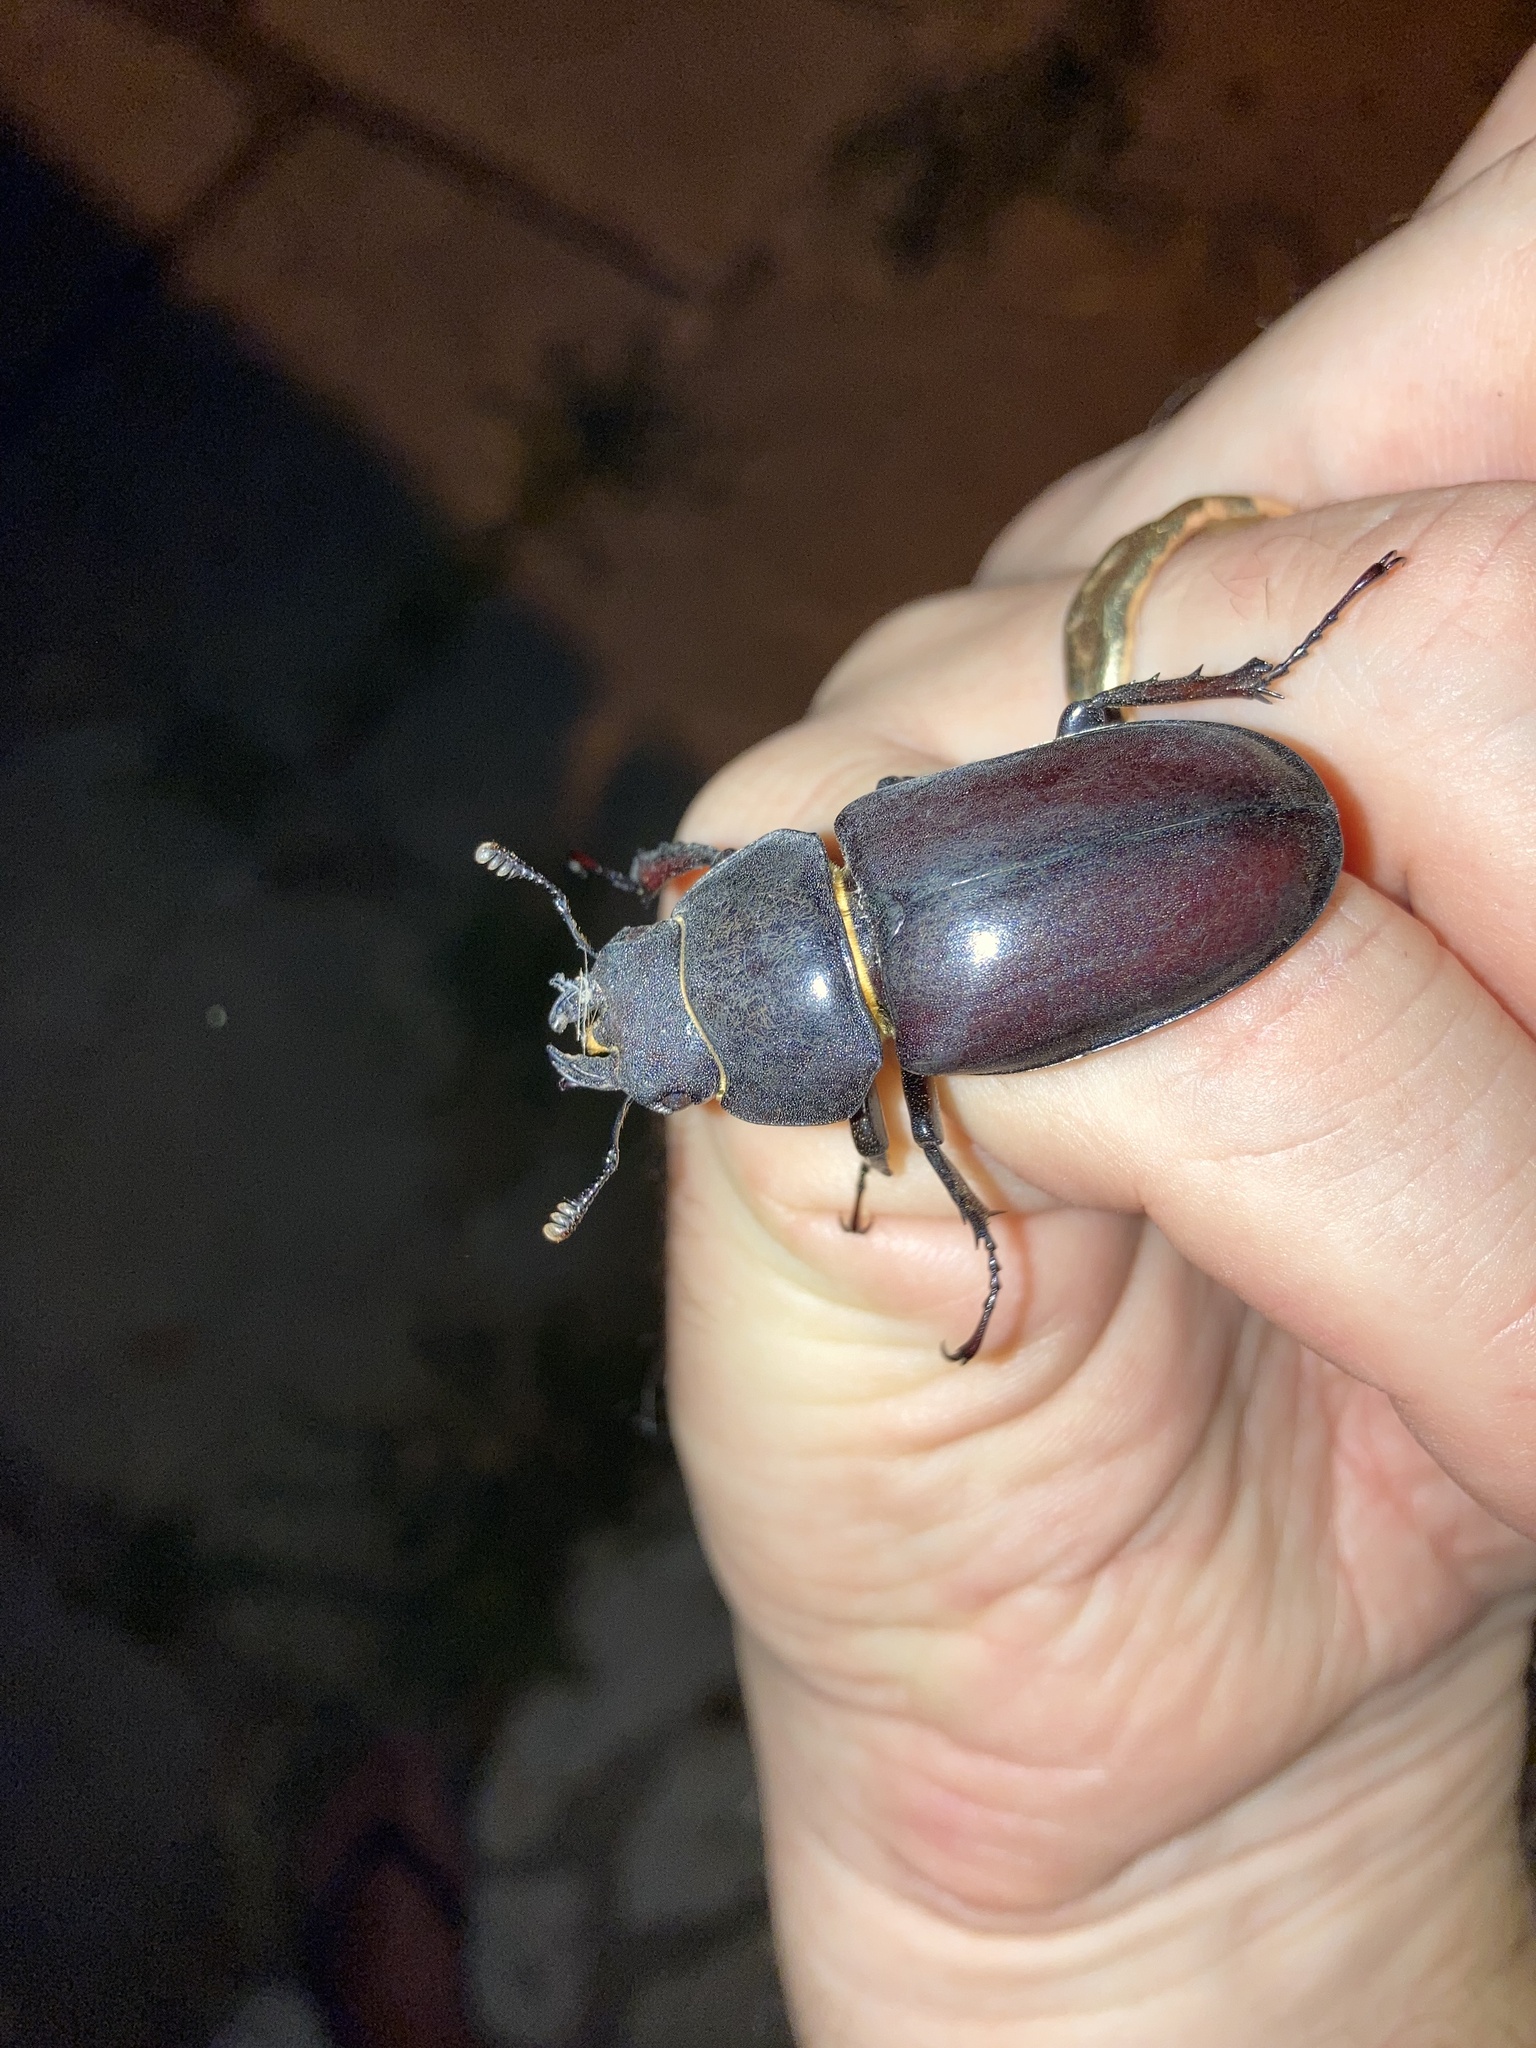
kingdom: Animalia
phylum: Arthropoda
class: Insecta
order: Coleoptera
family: Lucanidae
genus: Lucanus
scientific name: Lucanus cervus
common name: Stag beetle
